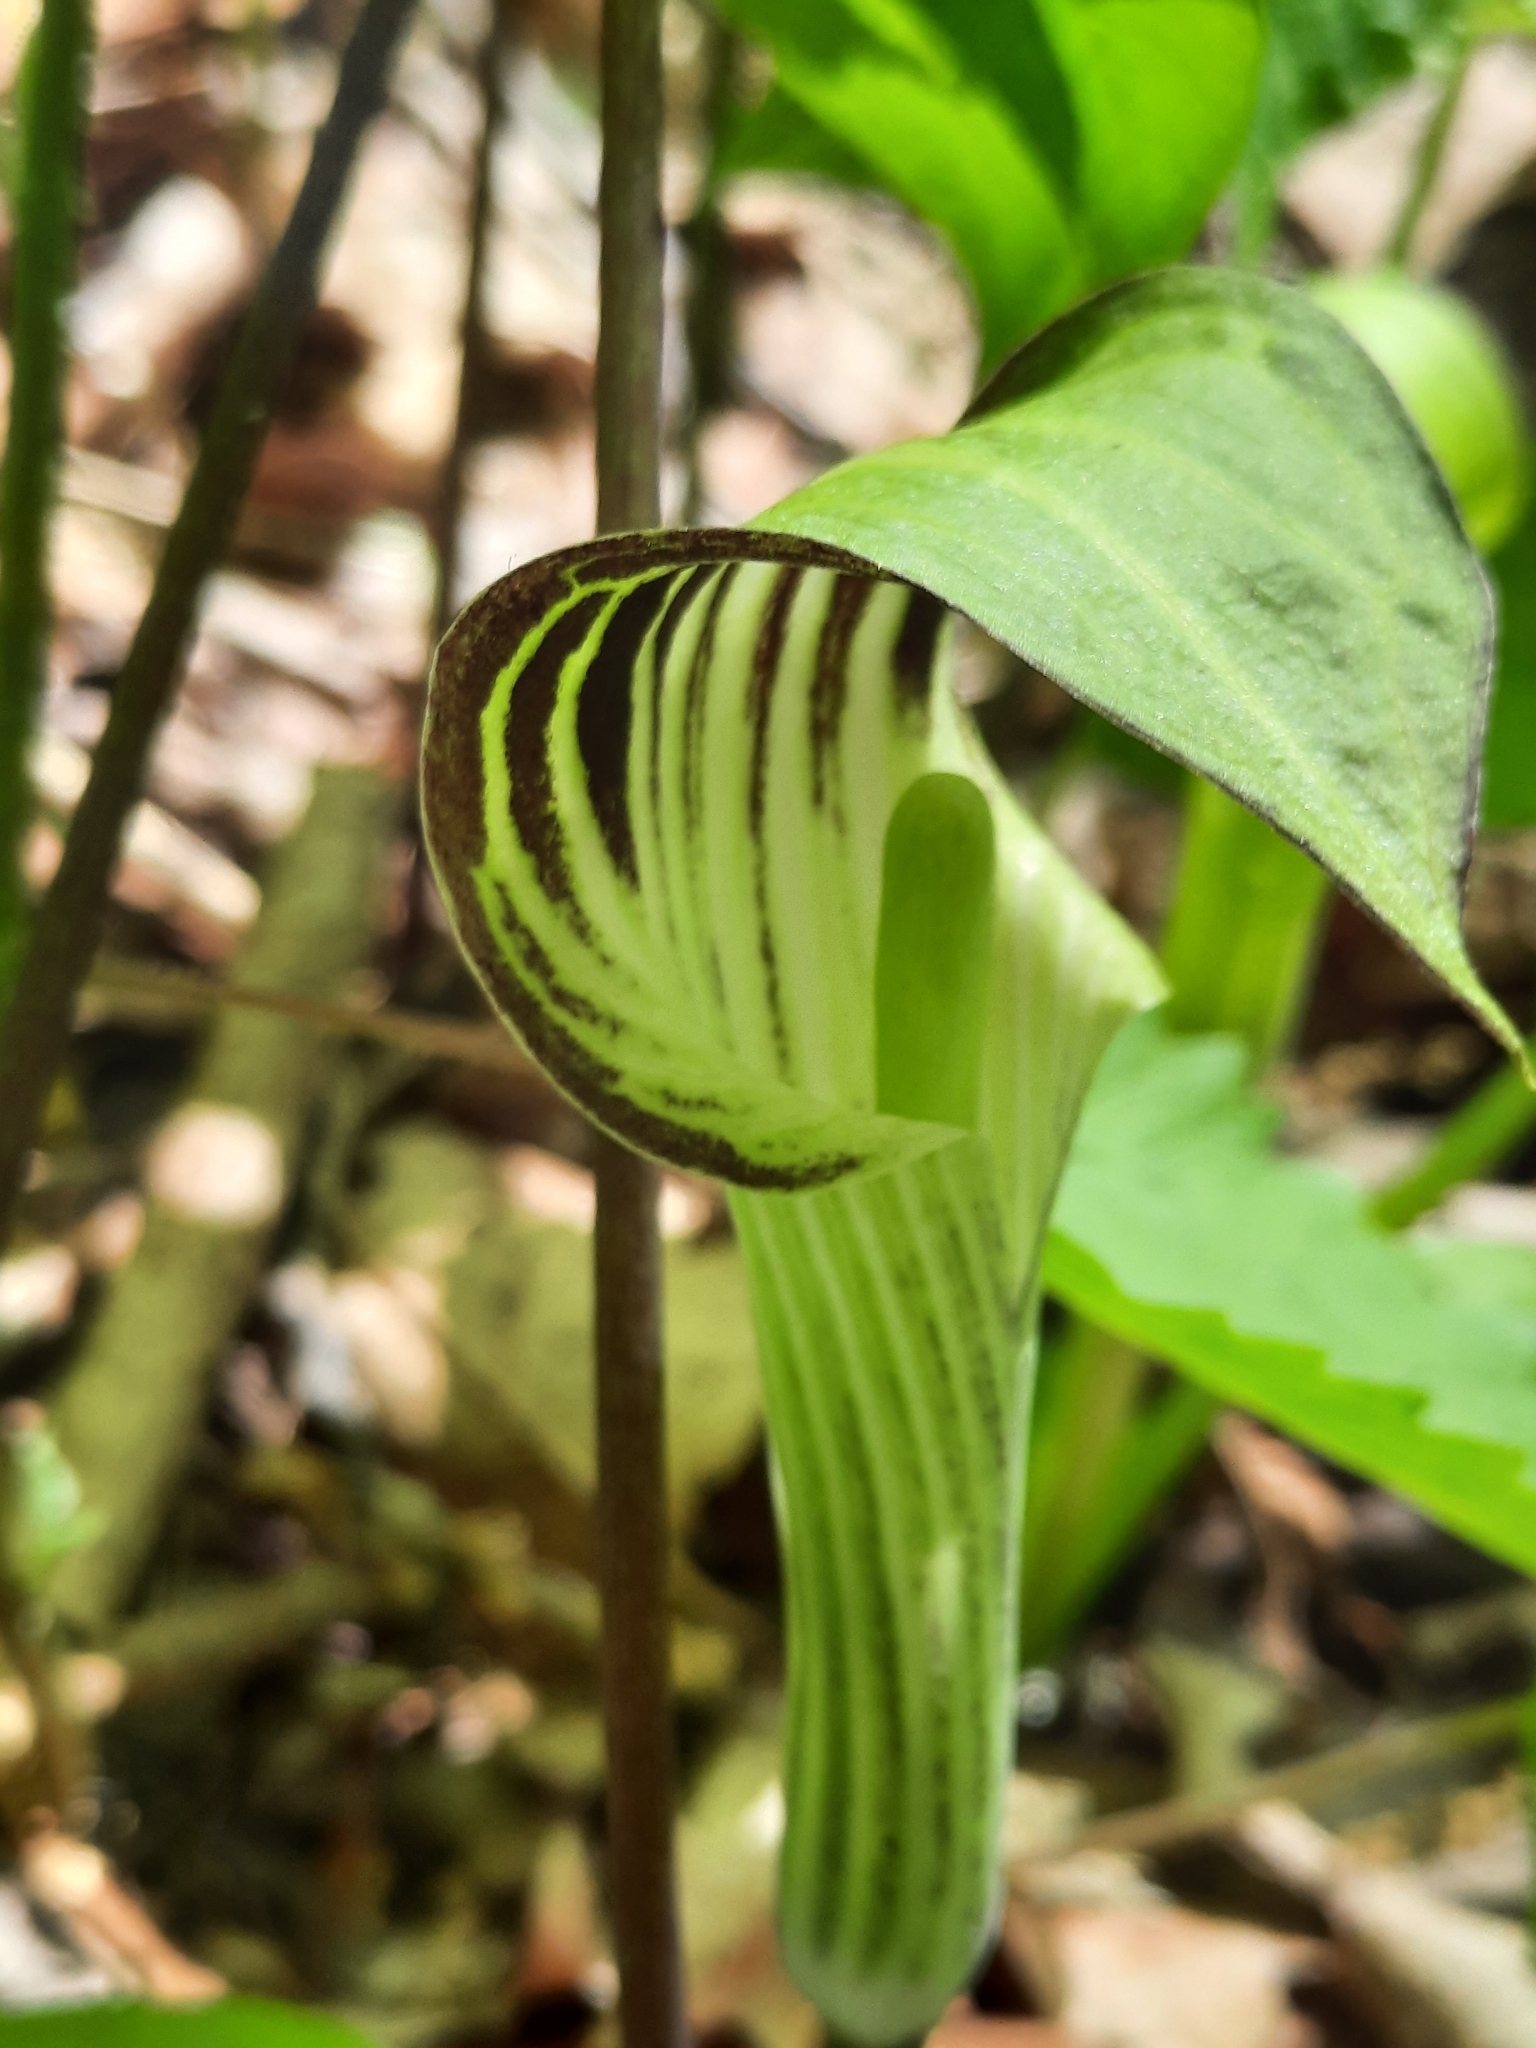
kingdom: Plantae
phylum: Tracheophyta
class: Liliopsida
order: Alismatales
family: Araceae
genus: Arisaema
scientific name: Arisaema triphyllum
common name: Jack-in-the-pulpit
